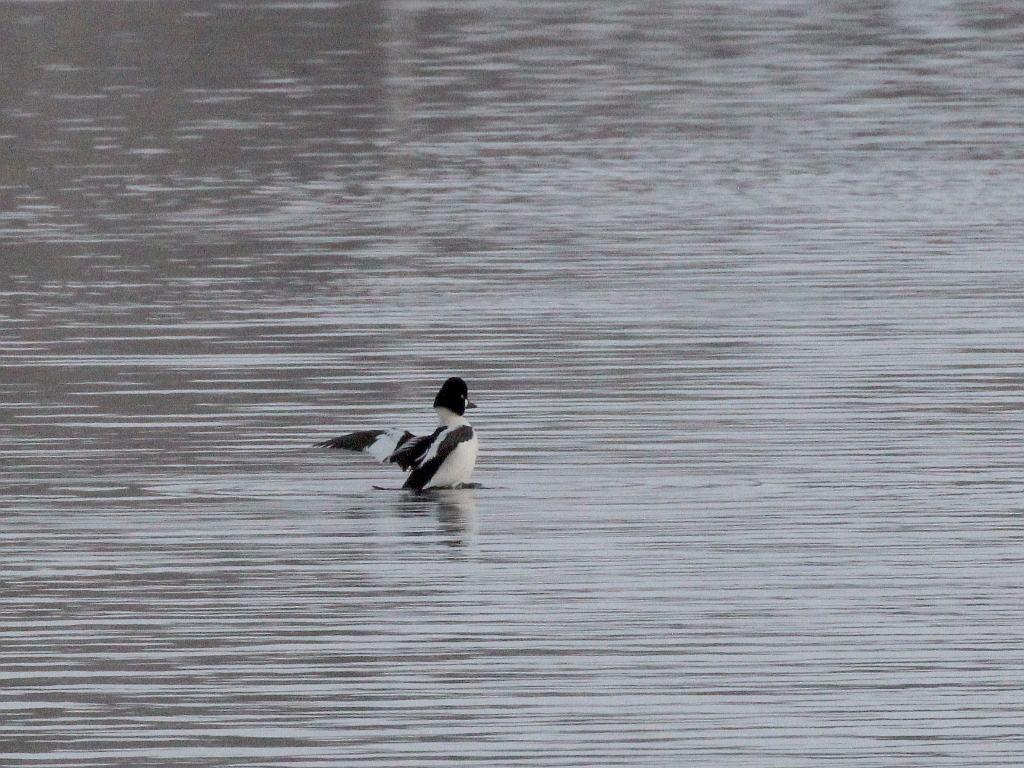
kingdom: Animalia
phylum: Chordata
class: Aves
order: Anseriformes
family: Anatidae
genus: Bucephala
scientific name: Bucephala clangula
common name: Common goldeneye
